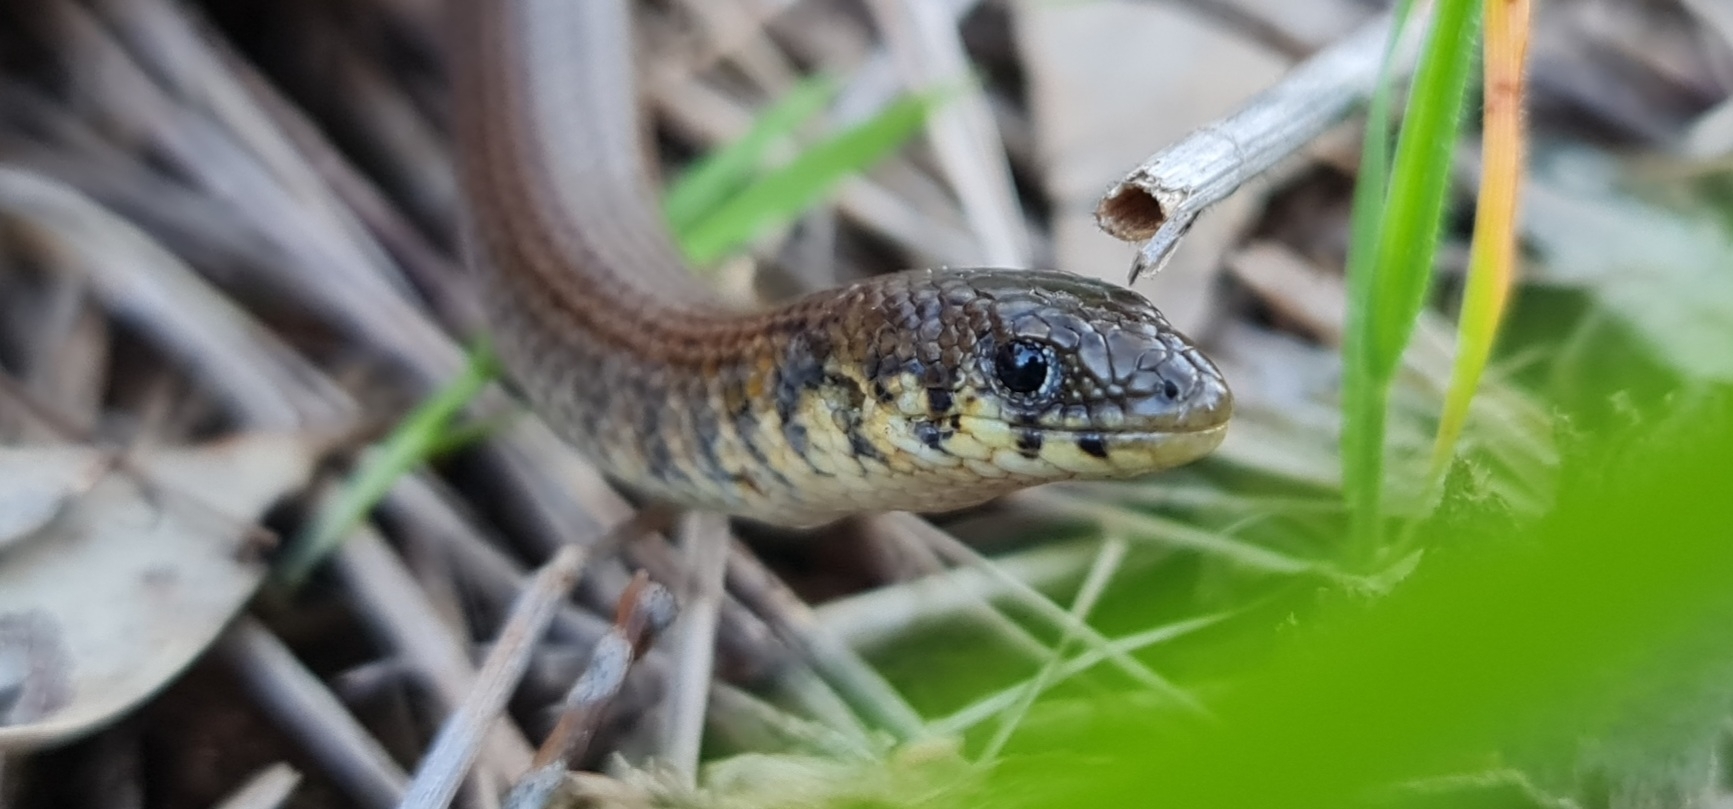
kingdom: Animalia
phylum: Chordata
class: Squamata
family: Pygopodidae
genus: Delma
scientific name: Delma molleri
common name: Gulfs delma
